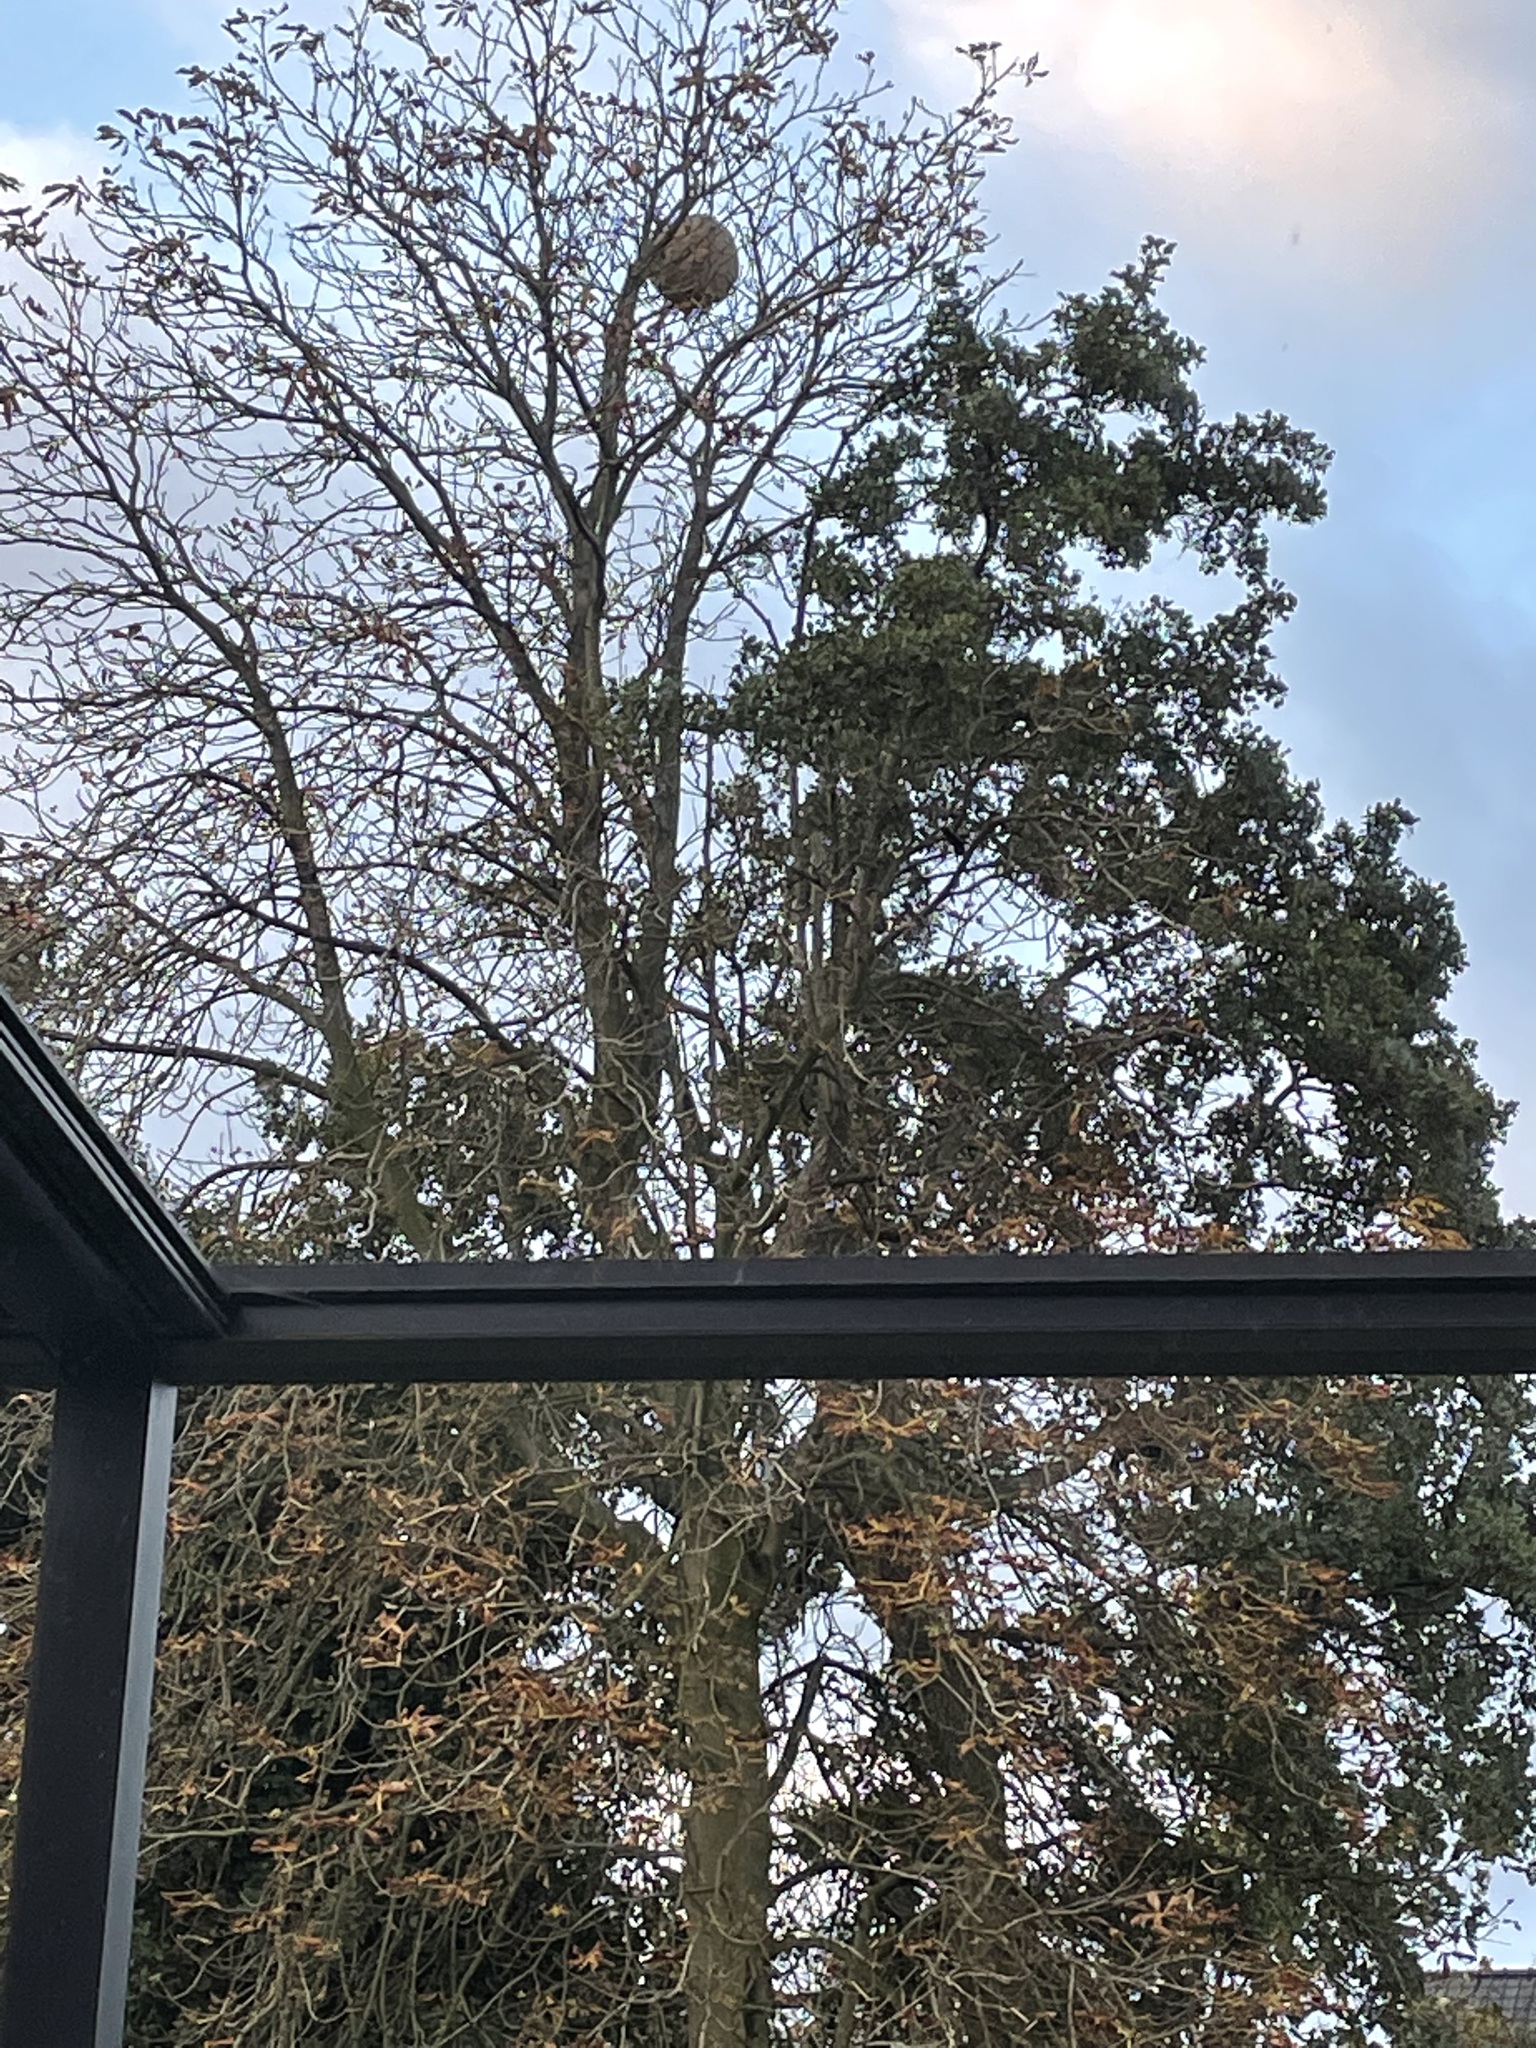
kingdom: Animalia
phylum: Arthropoda
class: Insecta
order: Hymenoptera
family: Vespidae
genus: Vespa
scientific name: Vespa velutina
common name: Asian hornet
